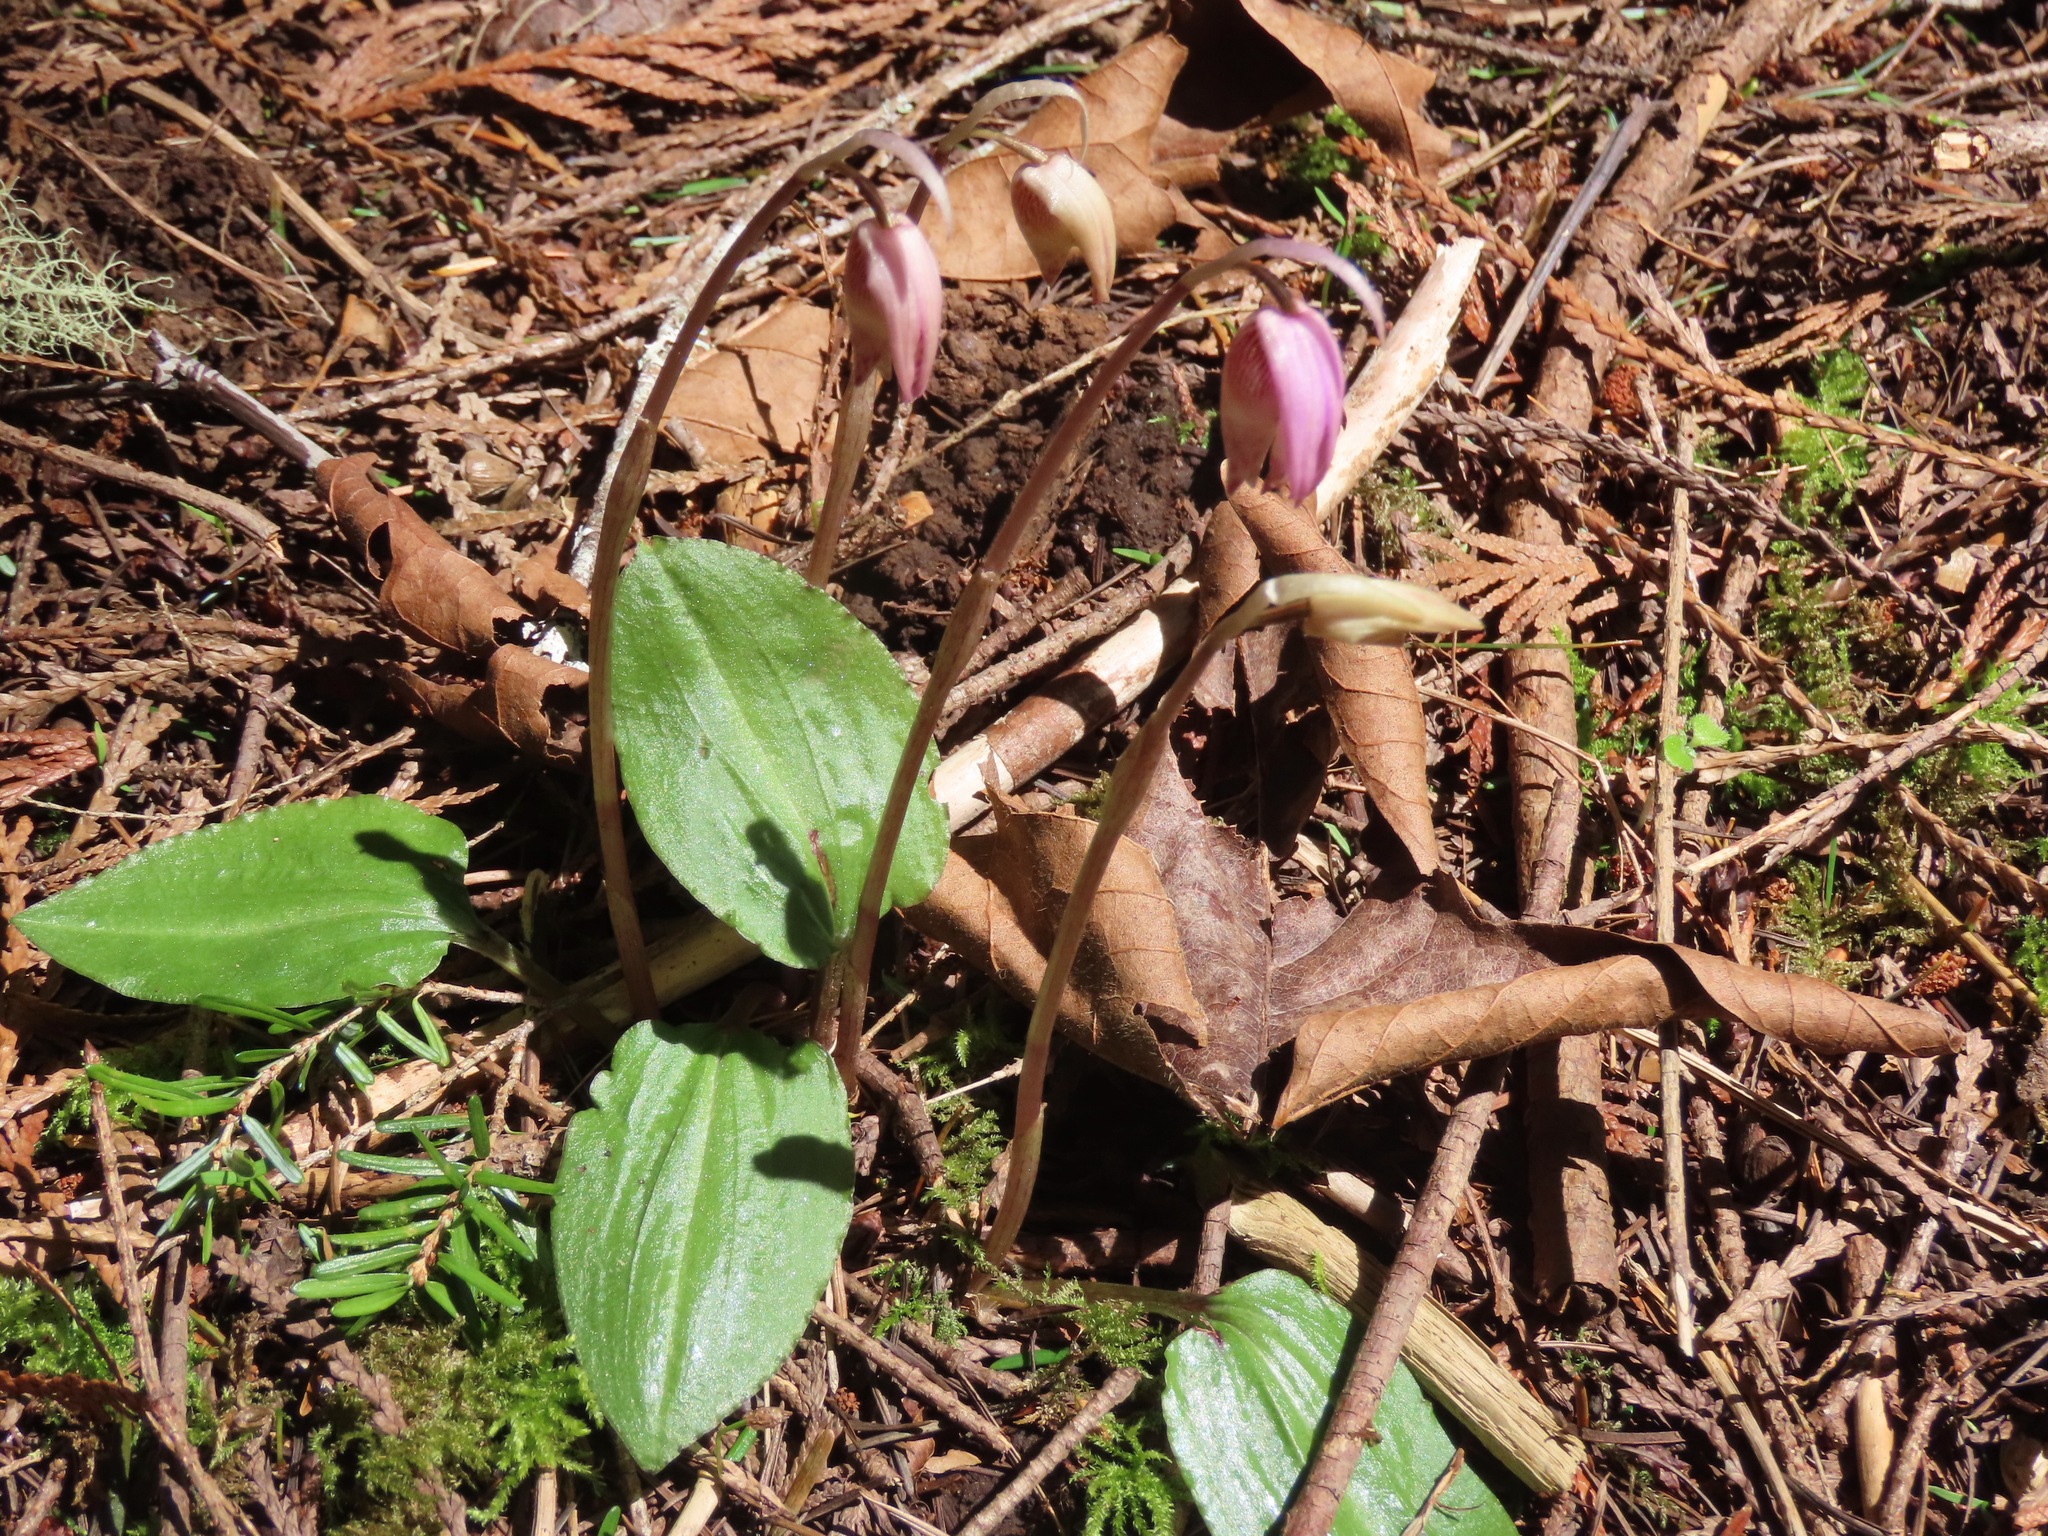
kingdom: Plantae
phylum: Tracheophyta
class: Liliopsida
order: Asparagales
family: Orchidaceae
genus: Calypso
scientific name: Calypso bulbosa
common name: Calypso
